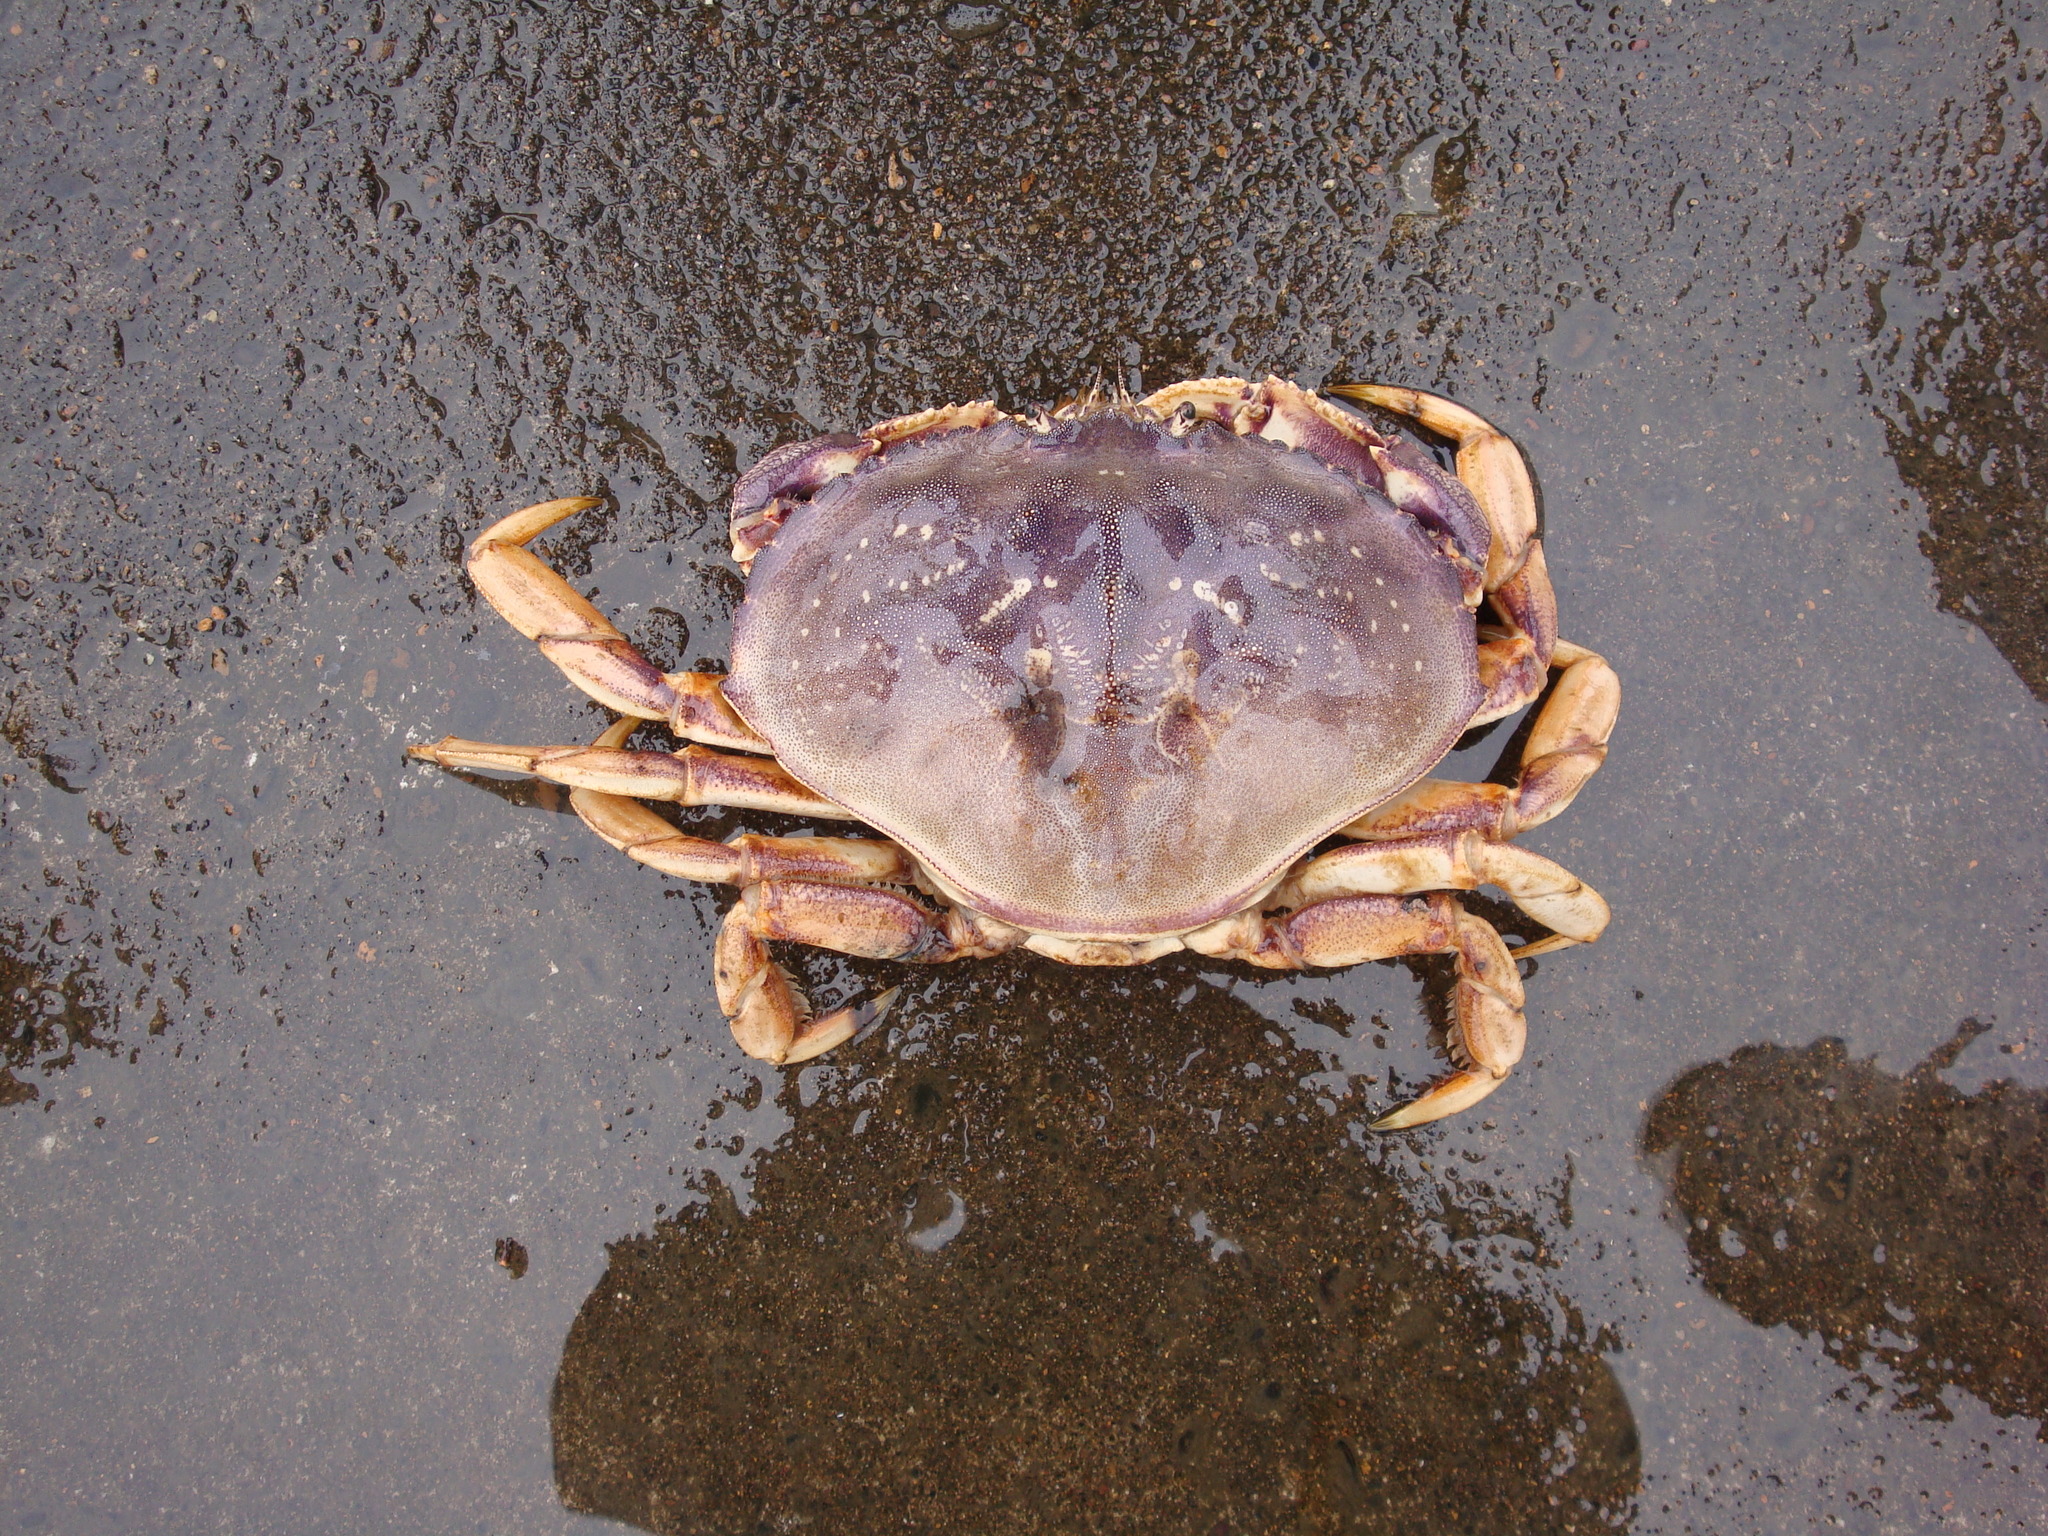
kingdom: Animalia
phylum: Arthropoda
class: Malacostraca
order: Decapoda
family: Cancridae
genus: Metacarcinus
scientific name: Metacarcinus magister
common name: Californian crab
